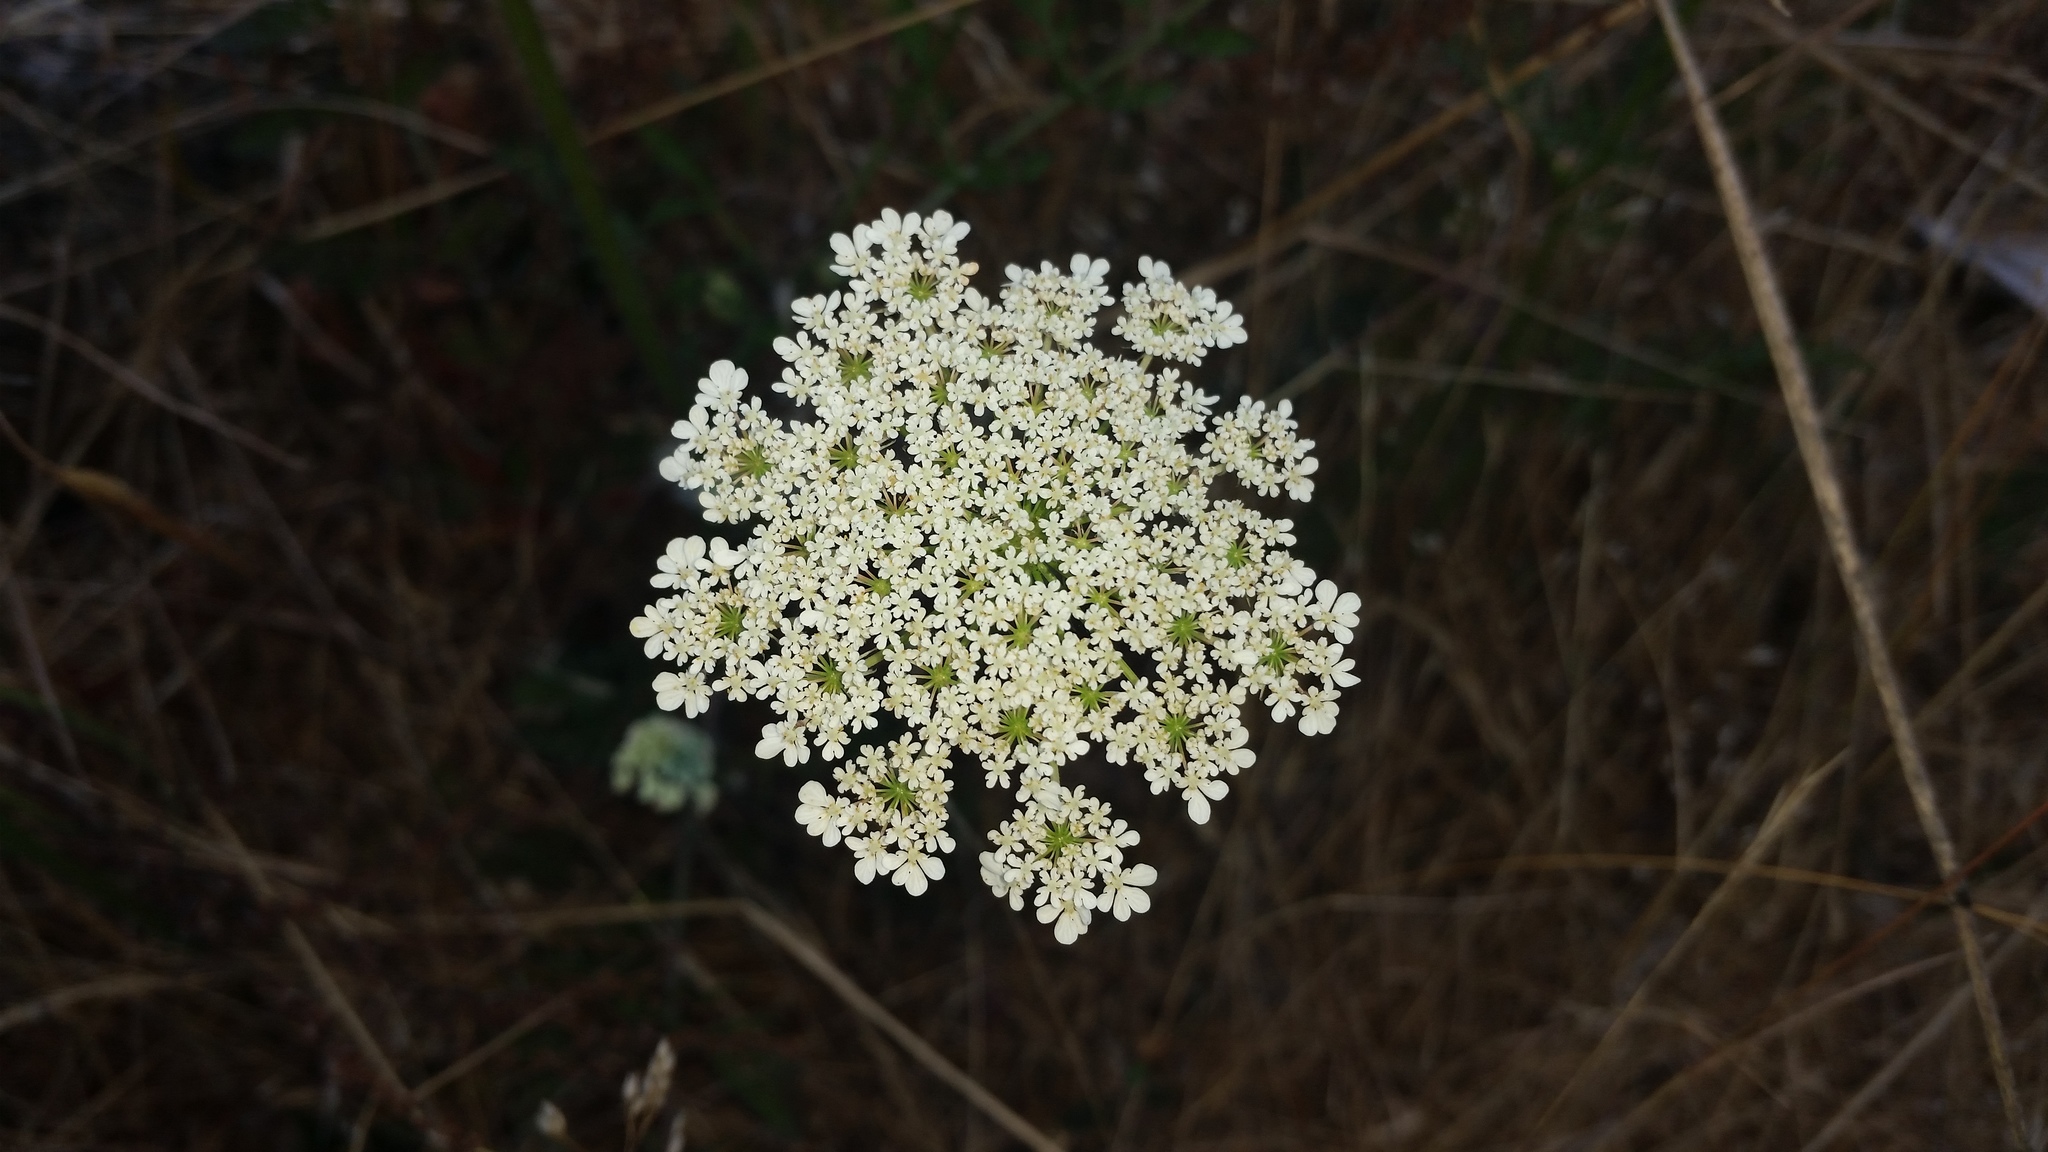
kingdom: Plantae
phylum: Tracheophyta
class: Magnoliopsida
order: Apiales
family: Apiaceae
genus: Daucus
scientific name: Daucus carota
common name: Wild carrot
